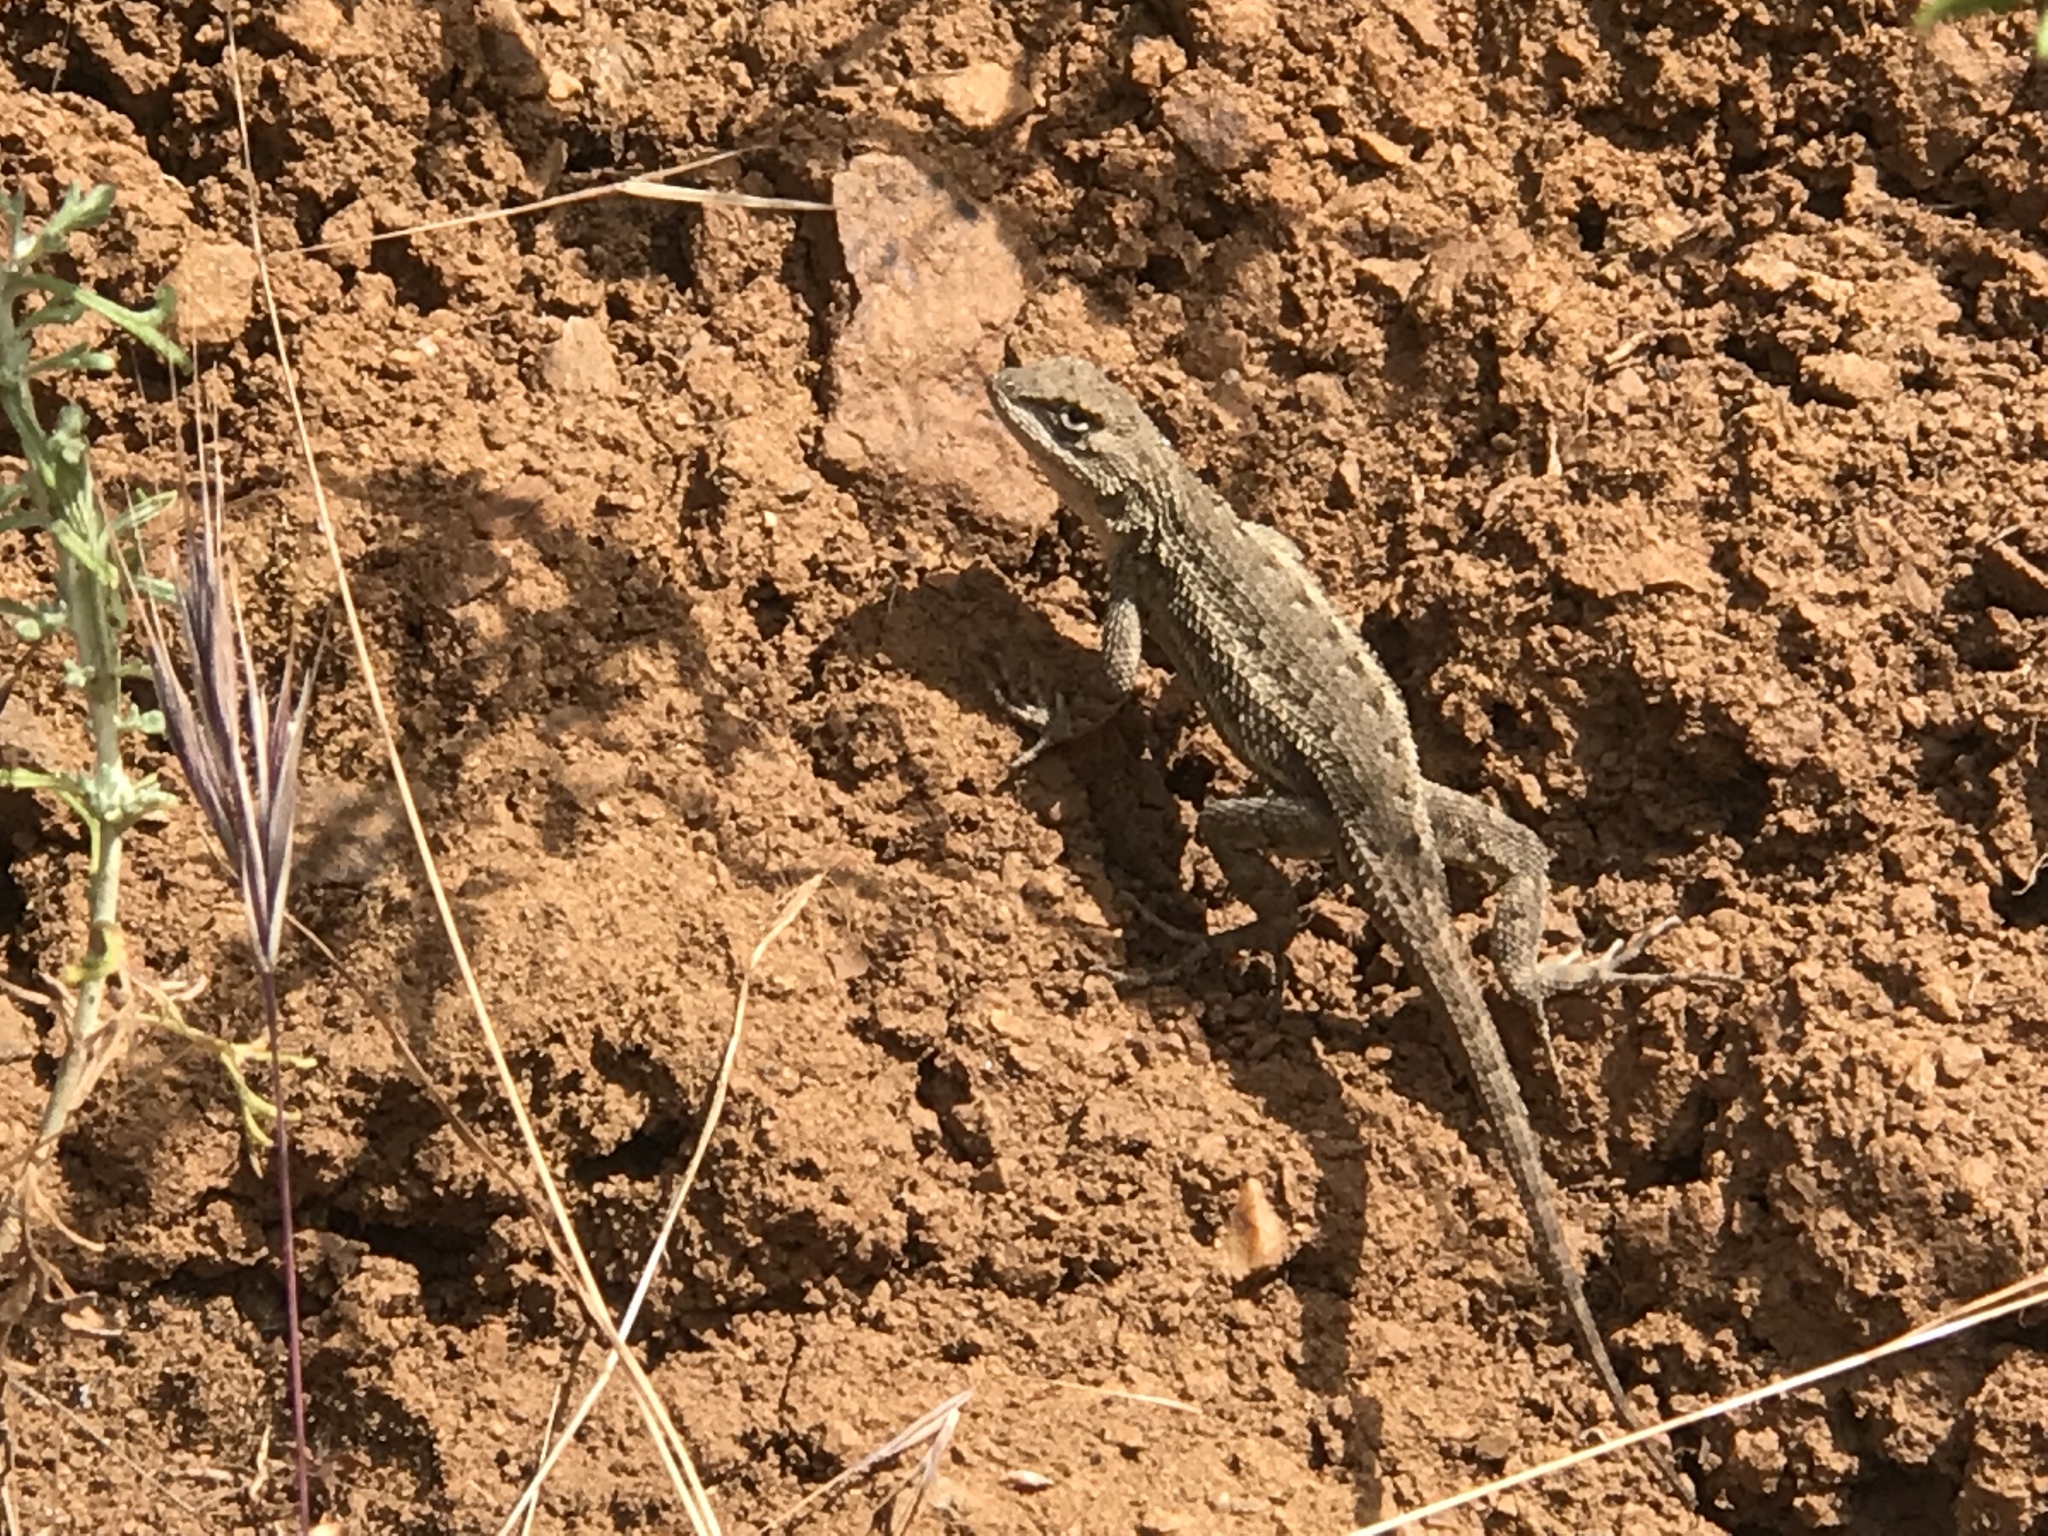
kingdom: Animalia
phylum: Chordata
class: Squamata
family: Phrynosomatidae
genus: Sceloporus
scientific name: Sceloporus occidentalis
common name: Western fence lizard
